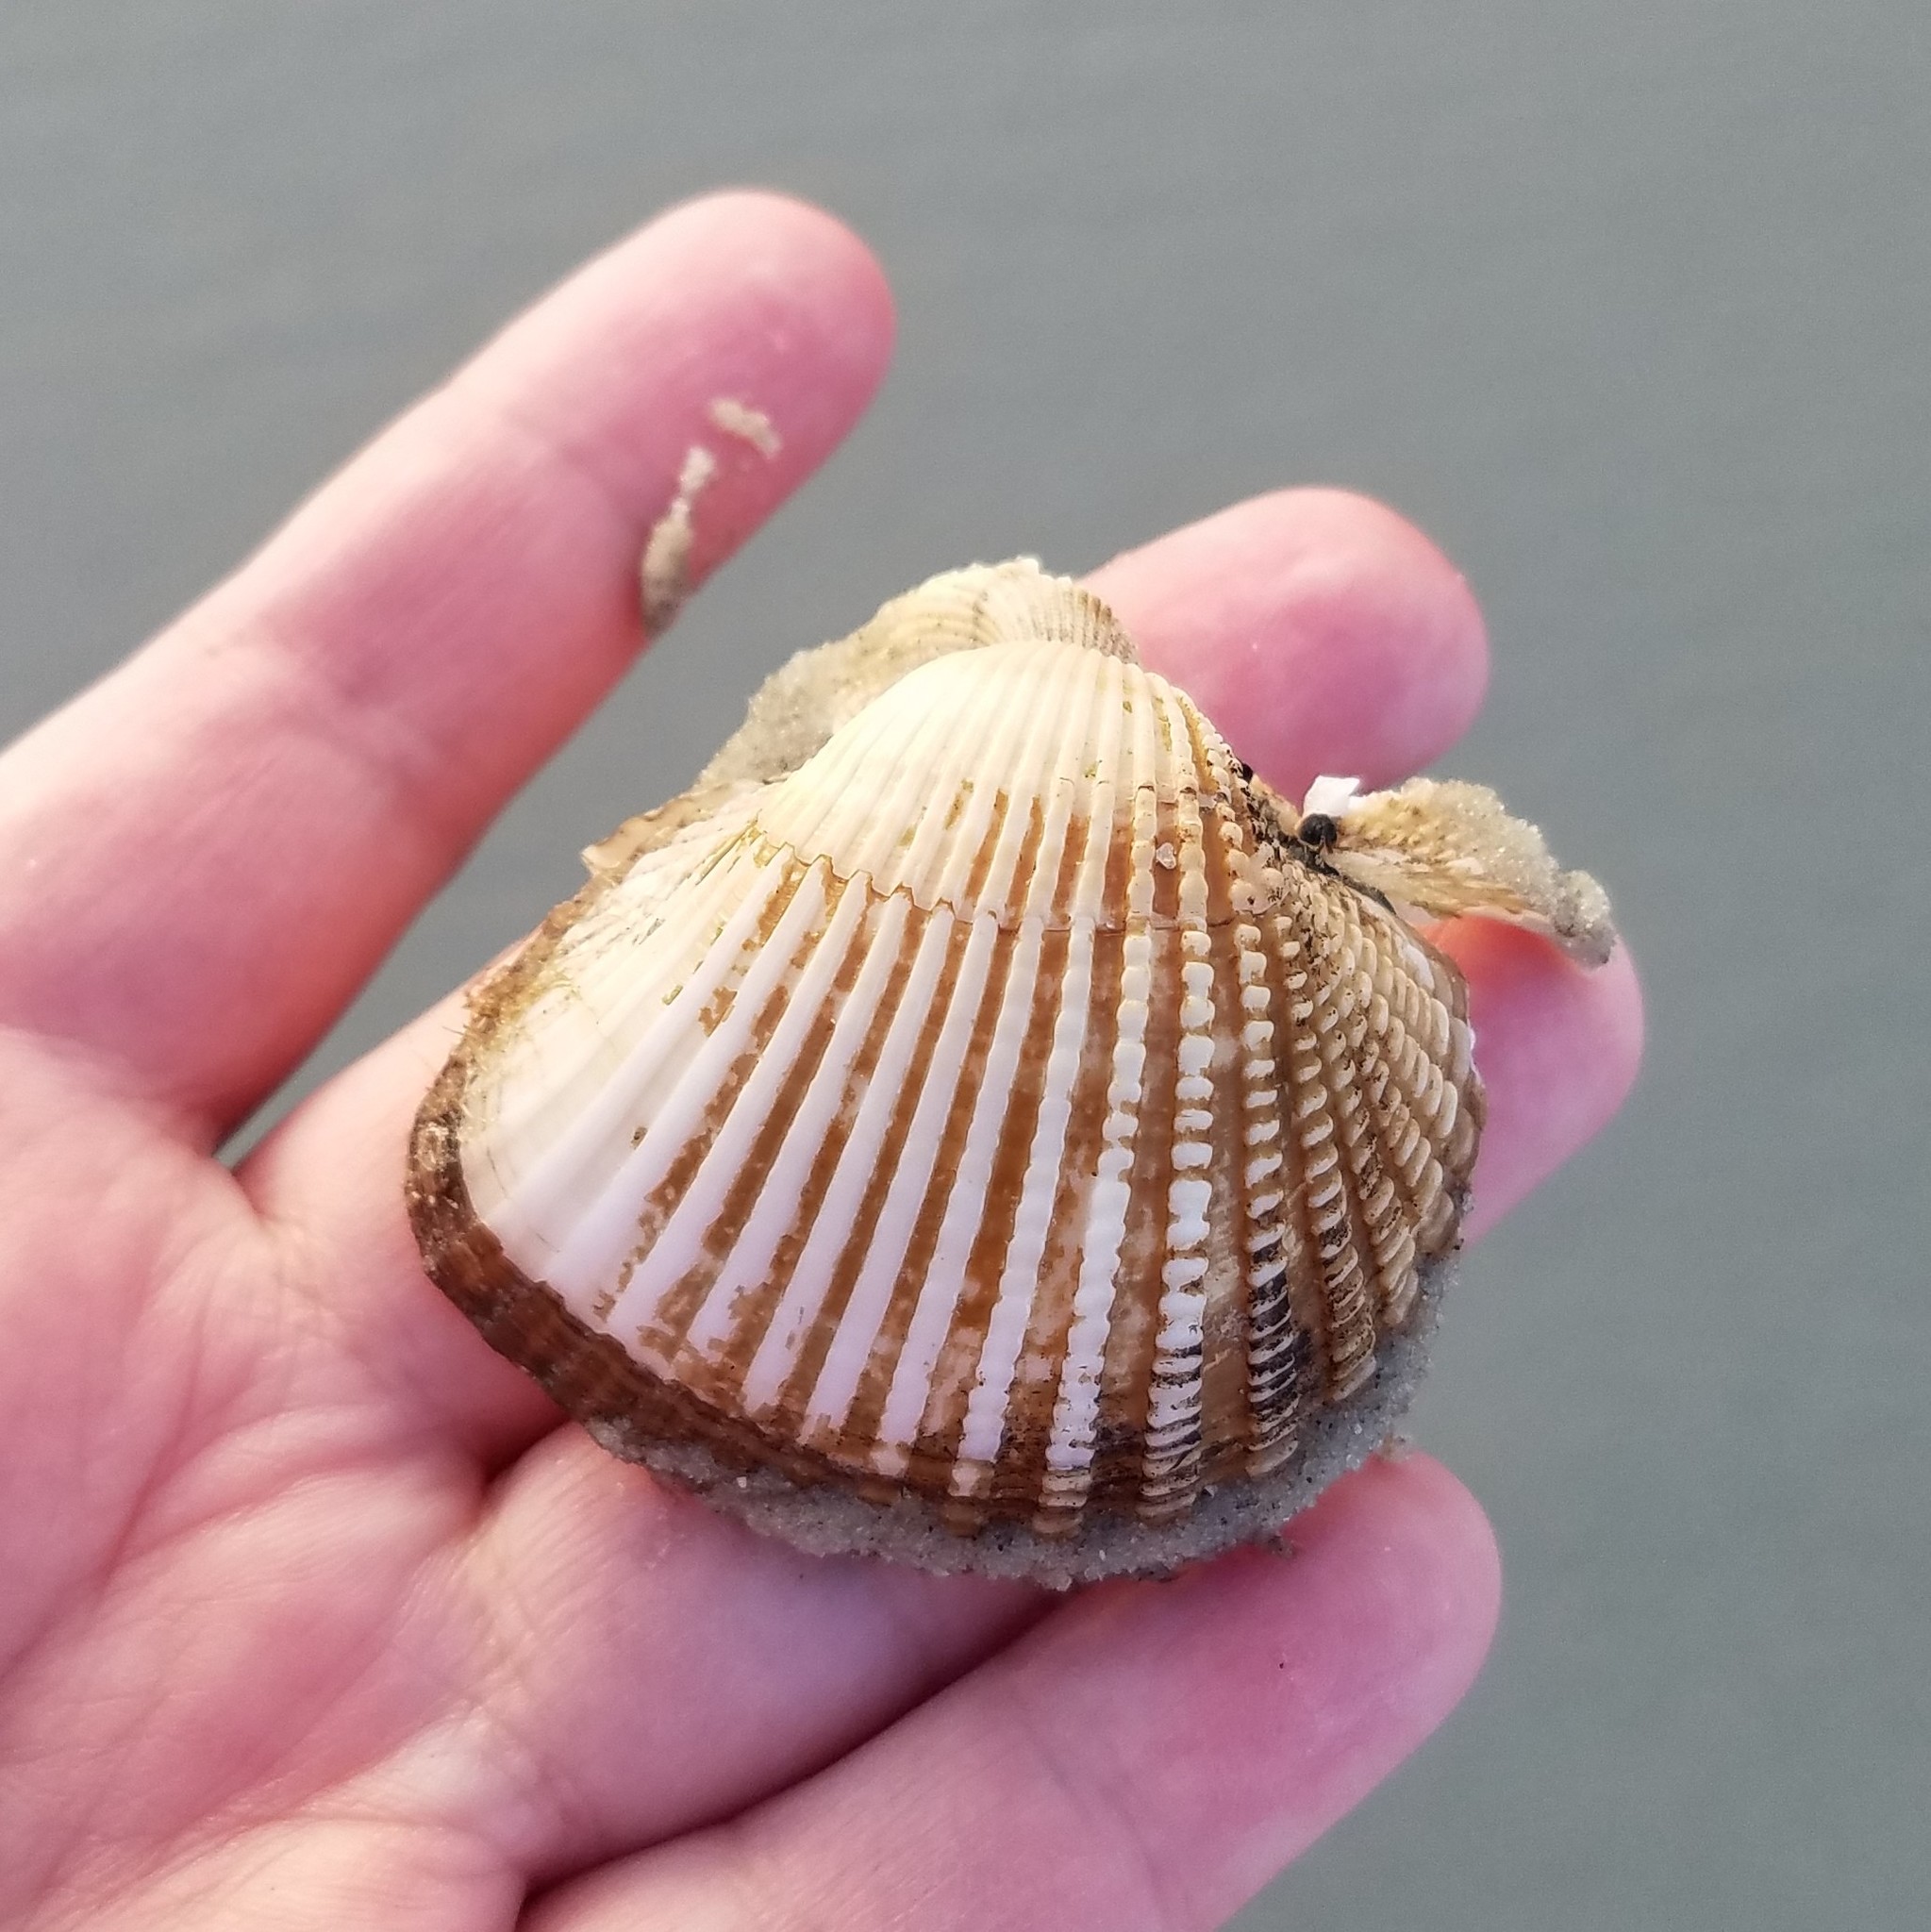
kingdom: Animalia
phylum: Mollusca
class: Bivalvia
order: Arcida
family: Arcidae
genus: Anadara
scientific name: Anadara brasiliana
